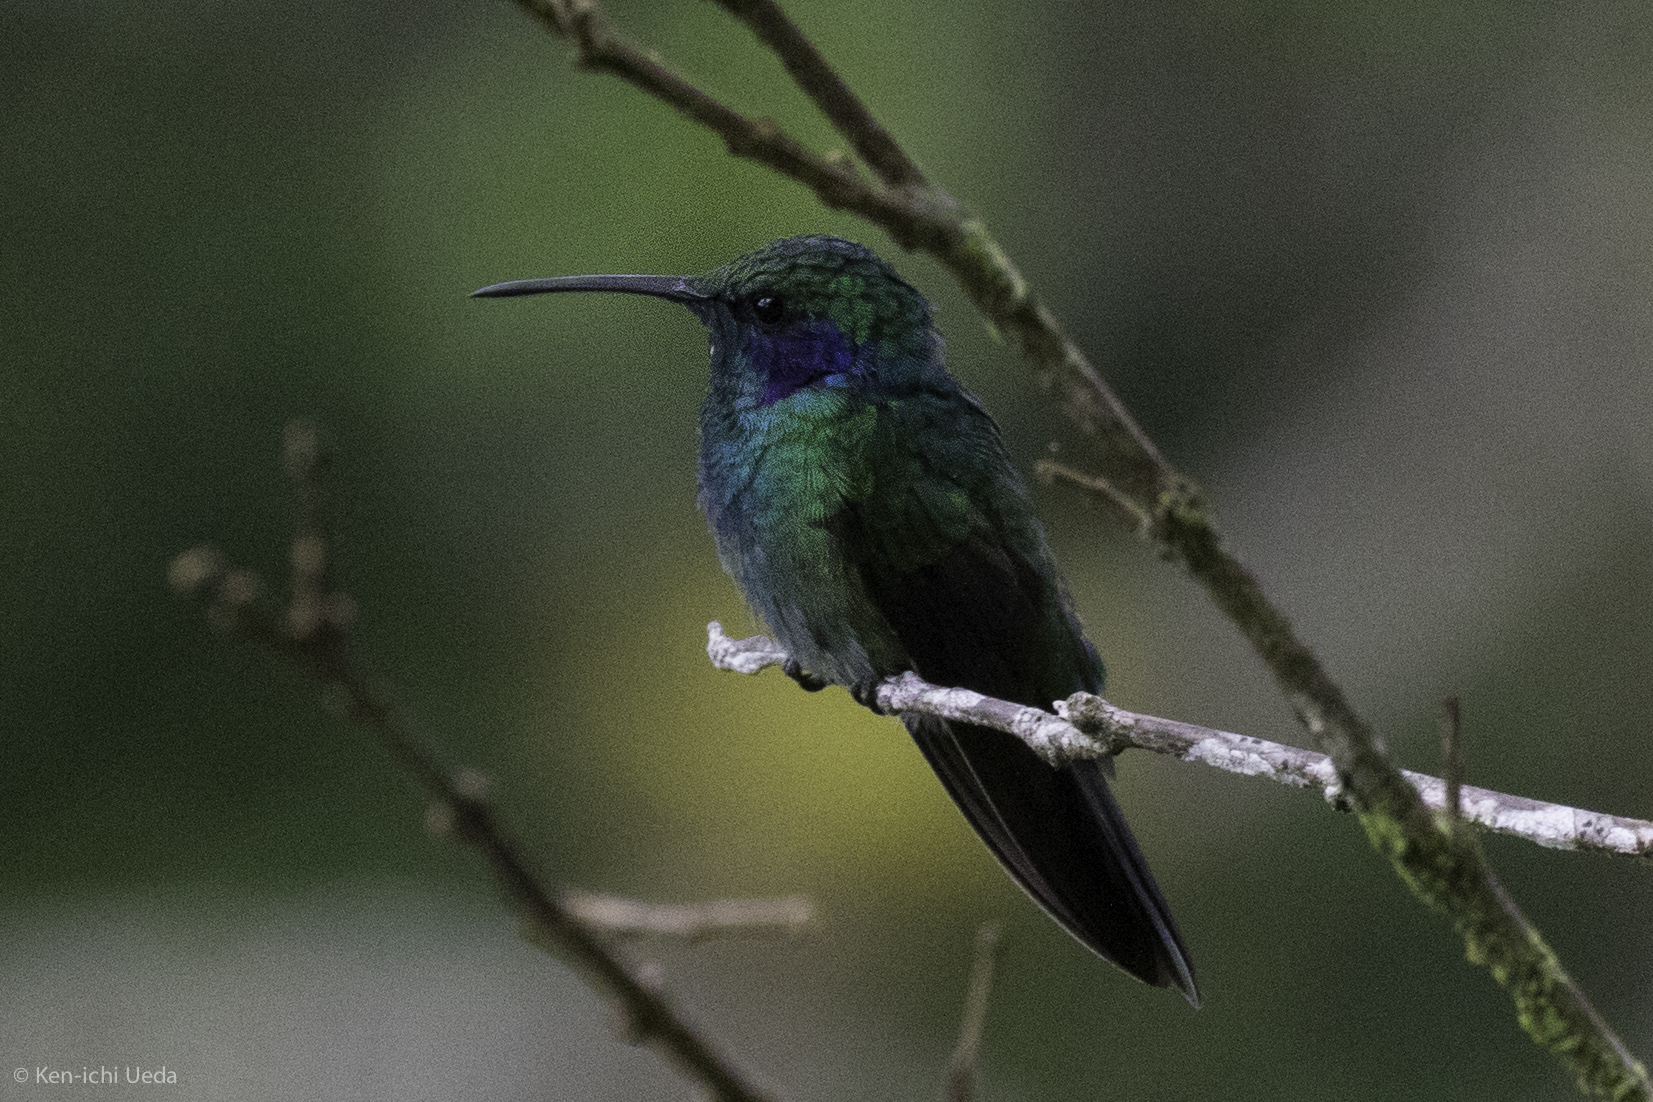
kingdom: Animalia
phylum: Chordata
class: Aves
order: Apodiformes
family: Trochilidae
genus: Colibri
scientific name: Colibri cyanotus
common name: Lesser violetear
